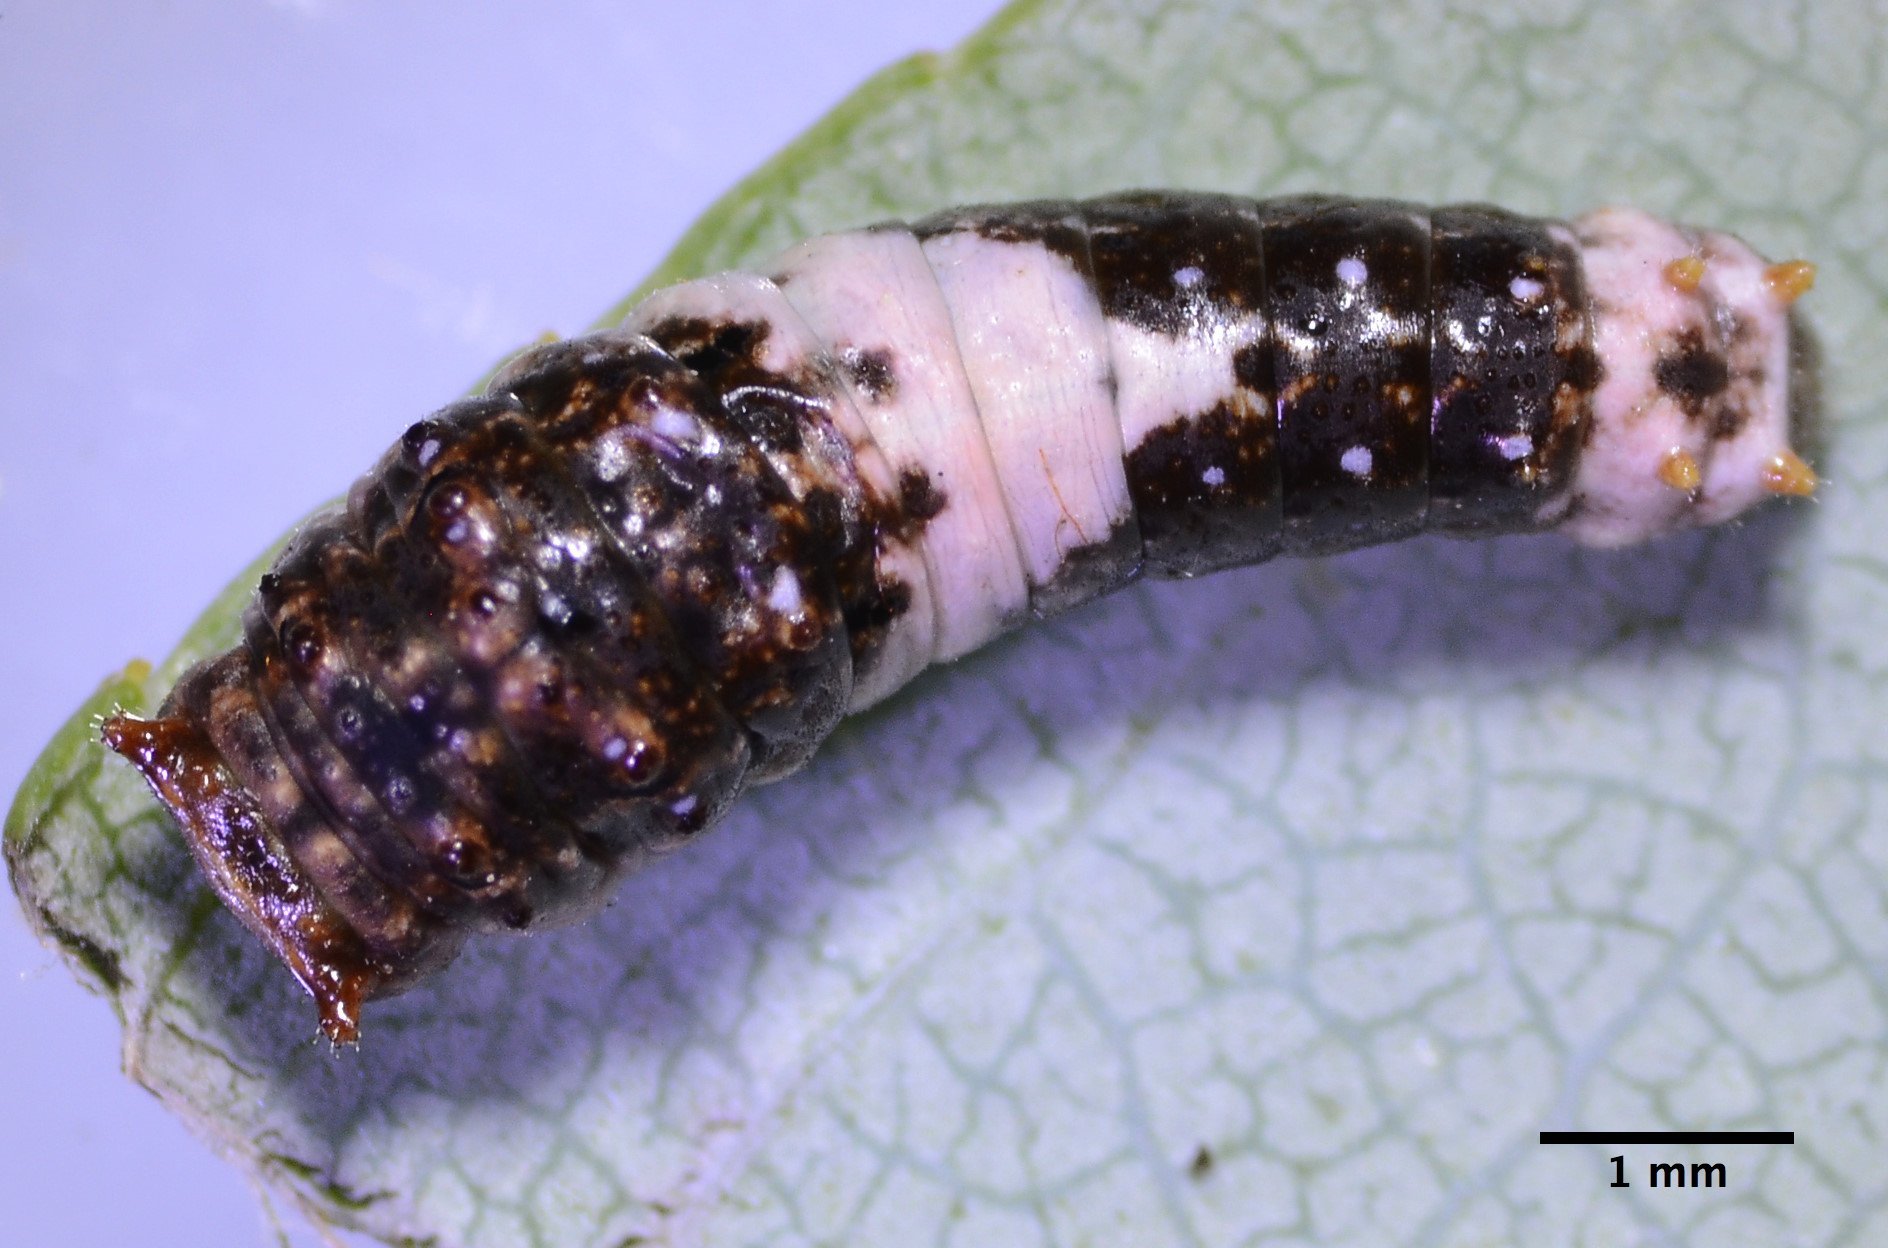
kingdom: Animalia
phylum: Arthropoda
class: Insecta
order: Lepidoptera
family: Papilionidae
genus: Papilio
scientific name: Papilio rutulus
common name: Western tiger swallowtail
